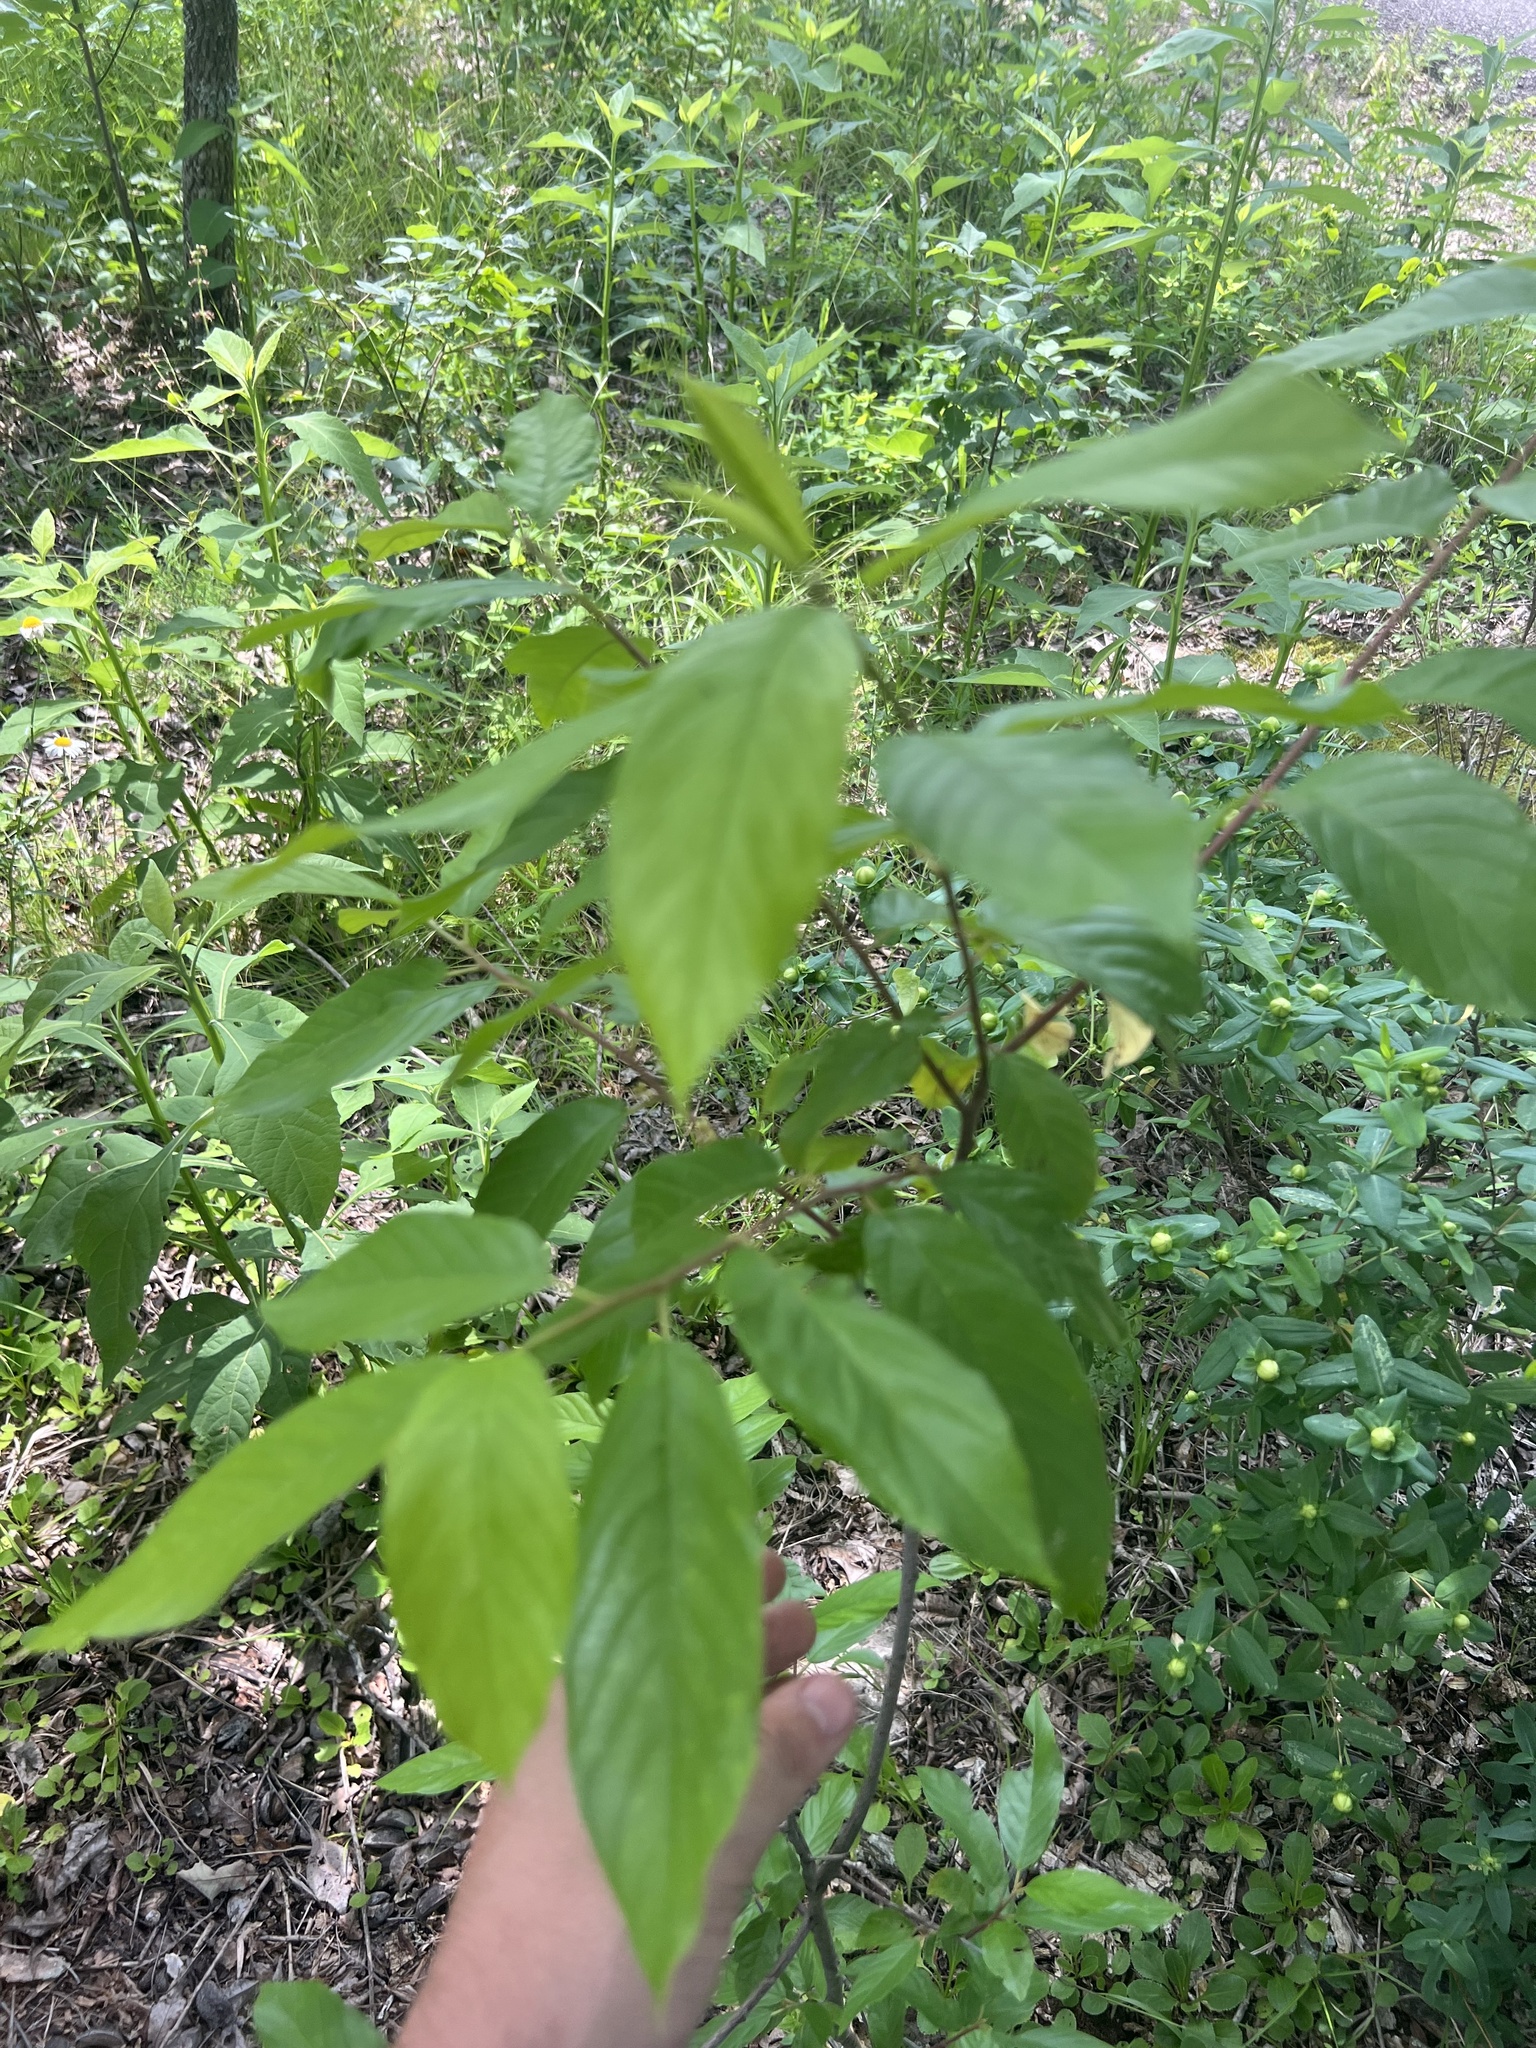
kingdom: Plantae
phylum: Tracheophyta
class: Magnoliopsida
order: Rosales
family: Rhamnaceae
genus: Frangula
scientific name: Frangula caroliniana
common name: Carolina buckthorn
